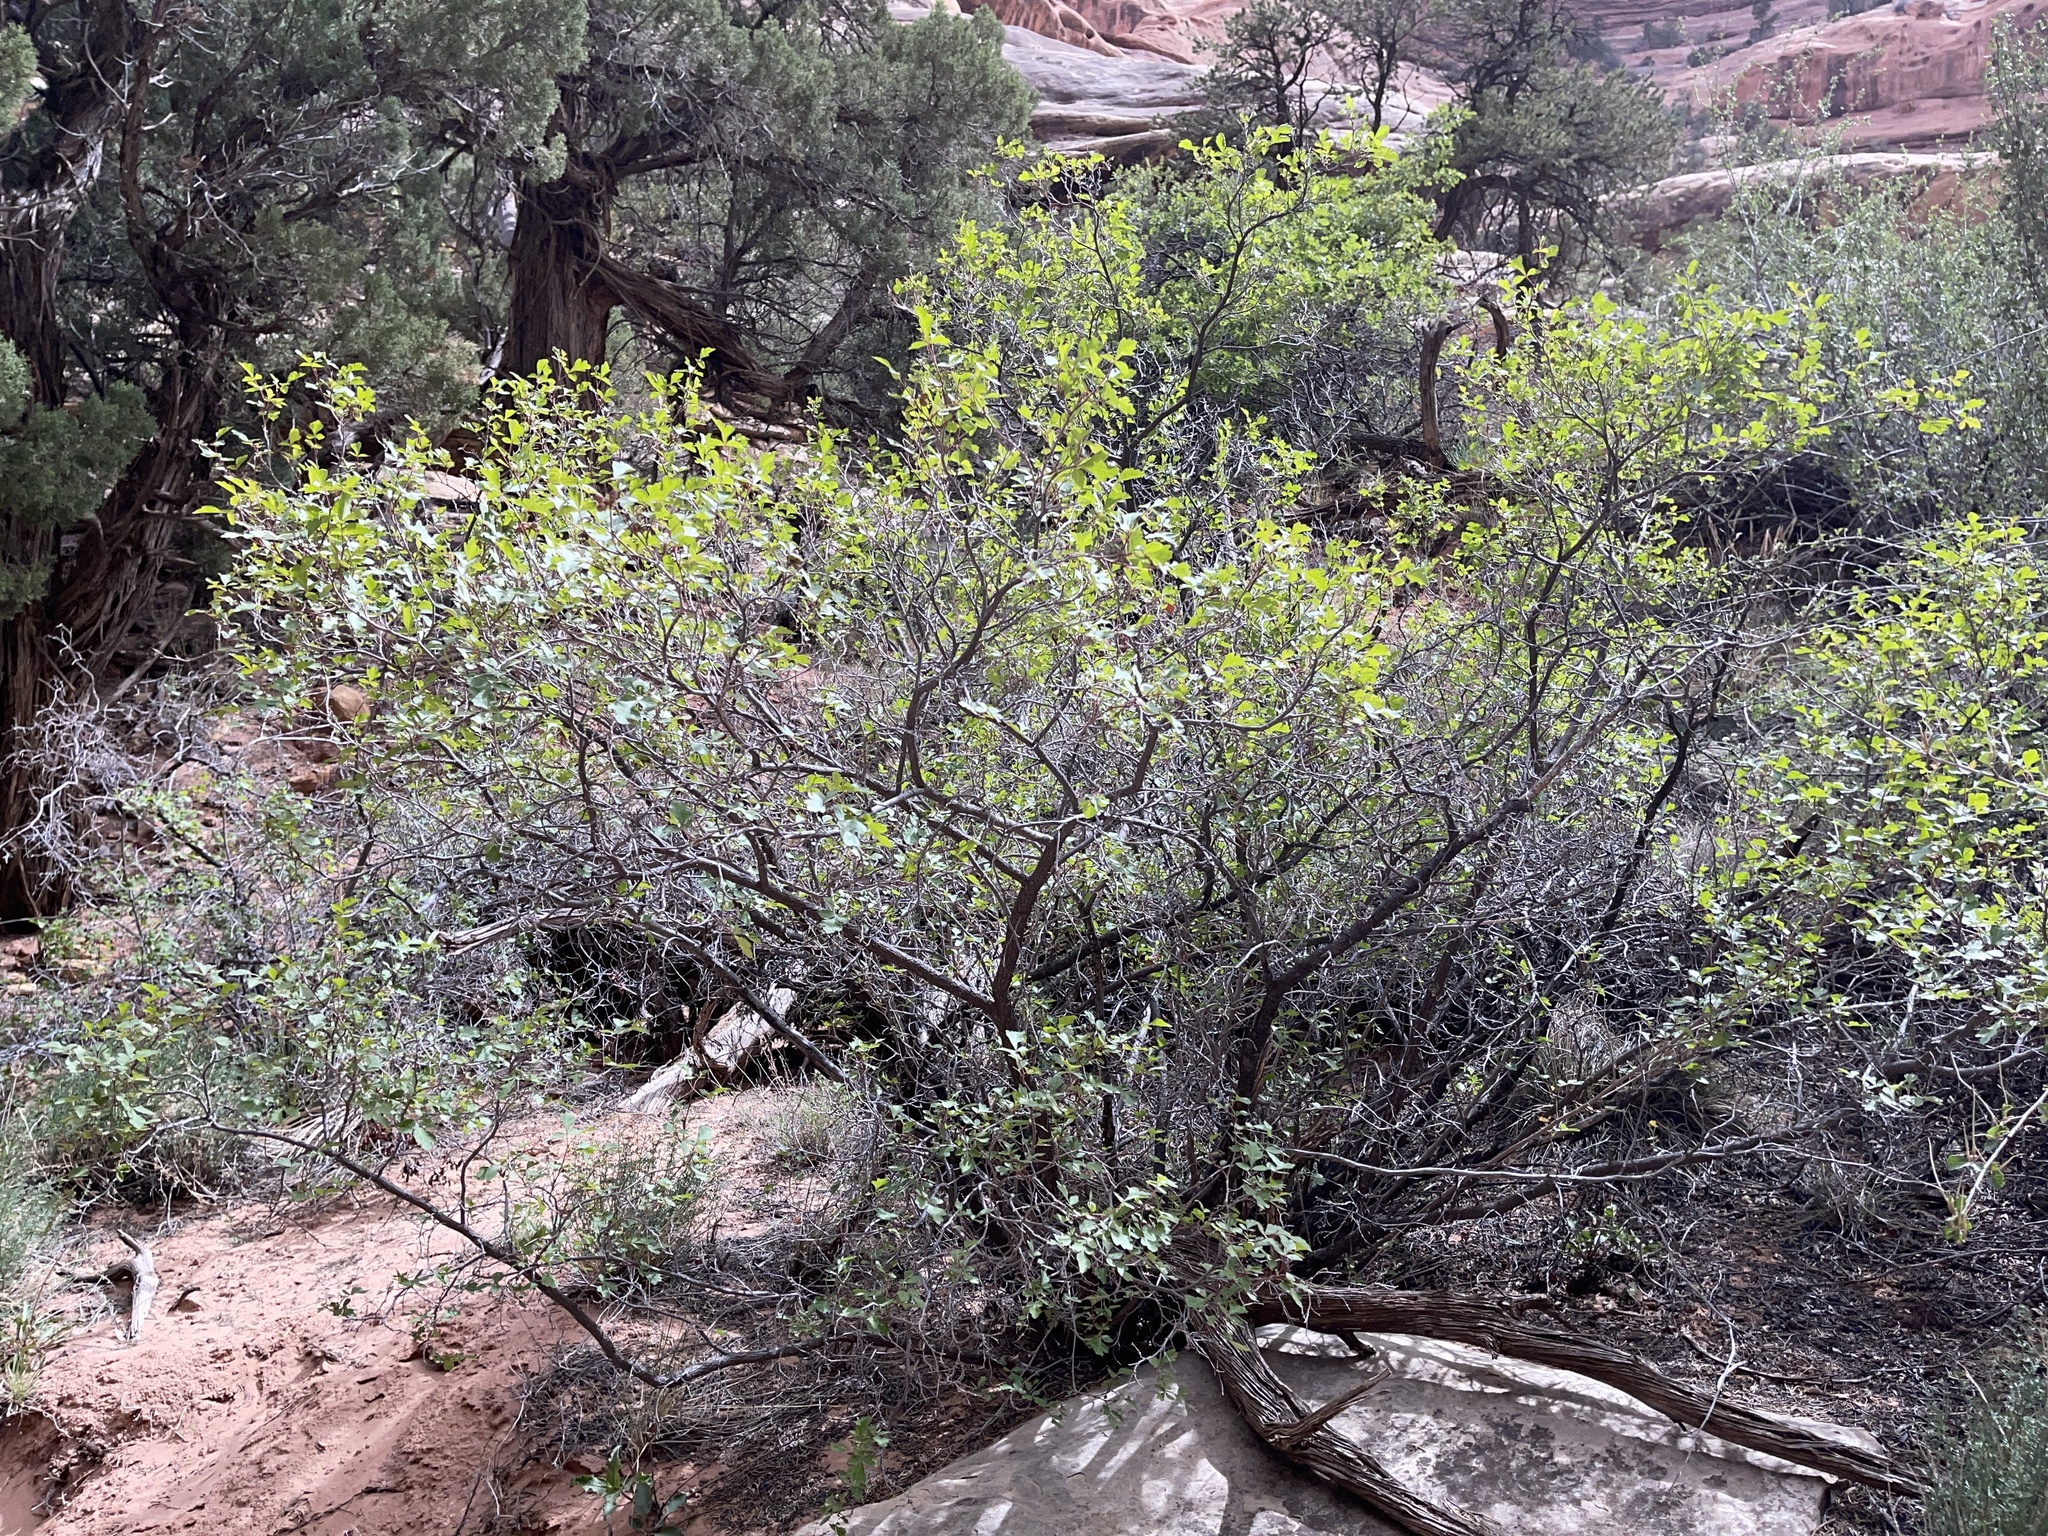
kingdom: Plantae
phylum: Tracheophyta
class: Magnoliopsida
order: Sapindales
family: Anacardiaceae
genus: Rhus
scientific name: Rhus aromatica
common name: Aromatic sumac
